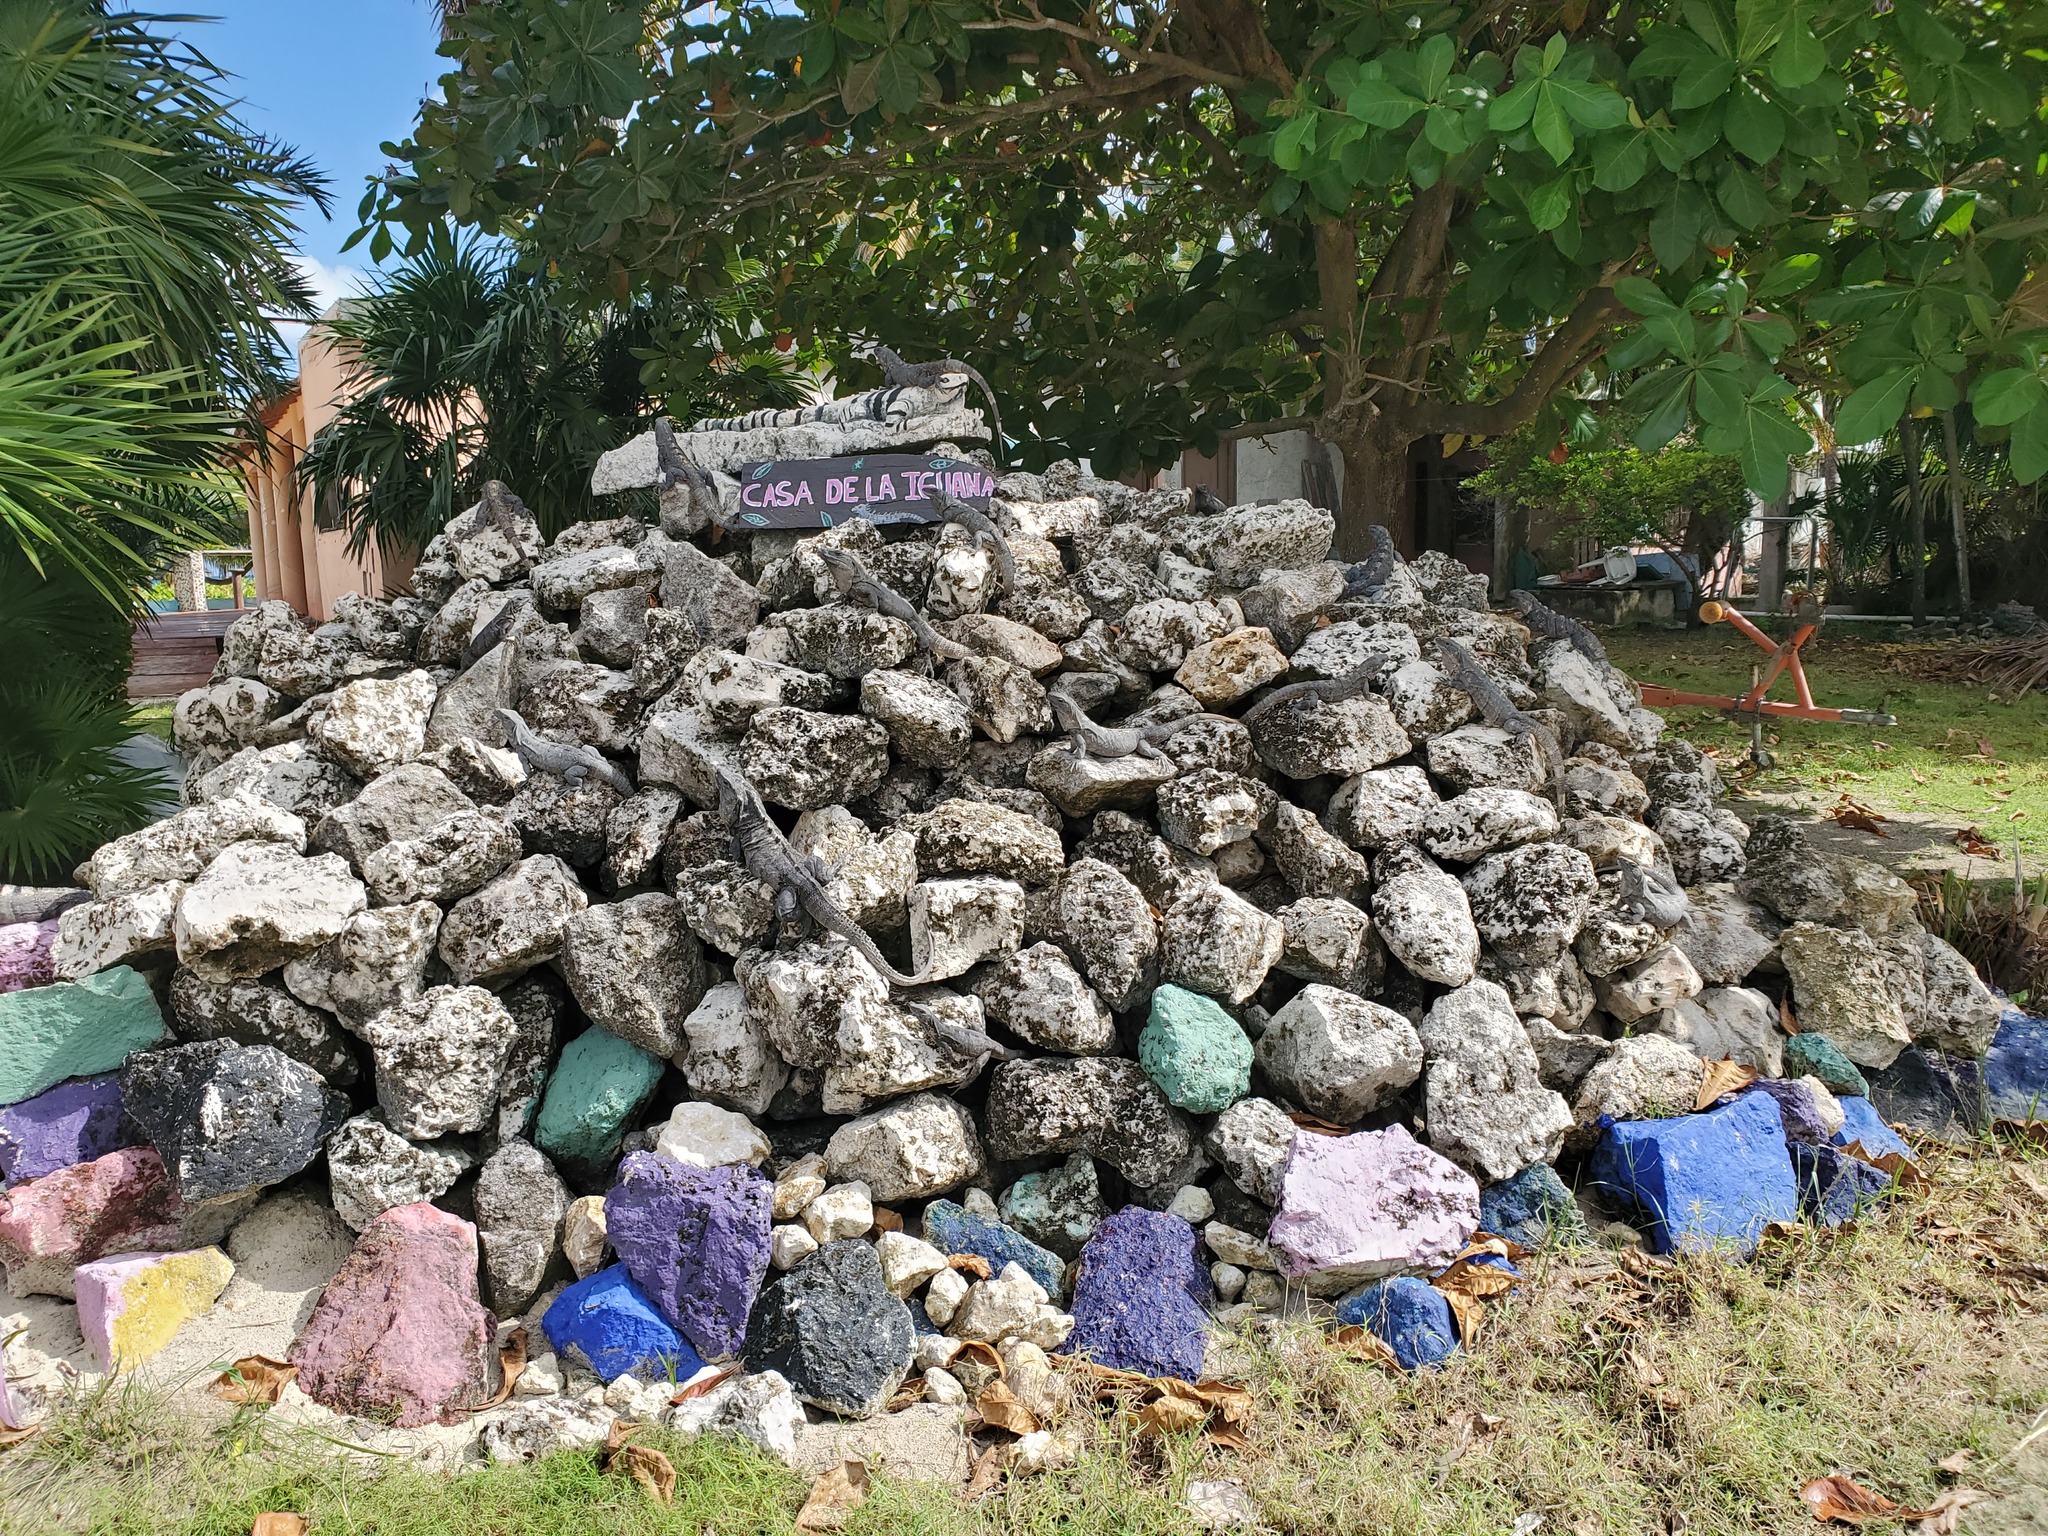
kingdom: Animalia
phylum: Chordata
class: Squamata
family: Iguanidae
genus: Ctenosaura
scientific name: Ctenosaura similis
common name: Black spiny-tailed iguana
